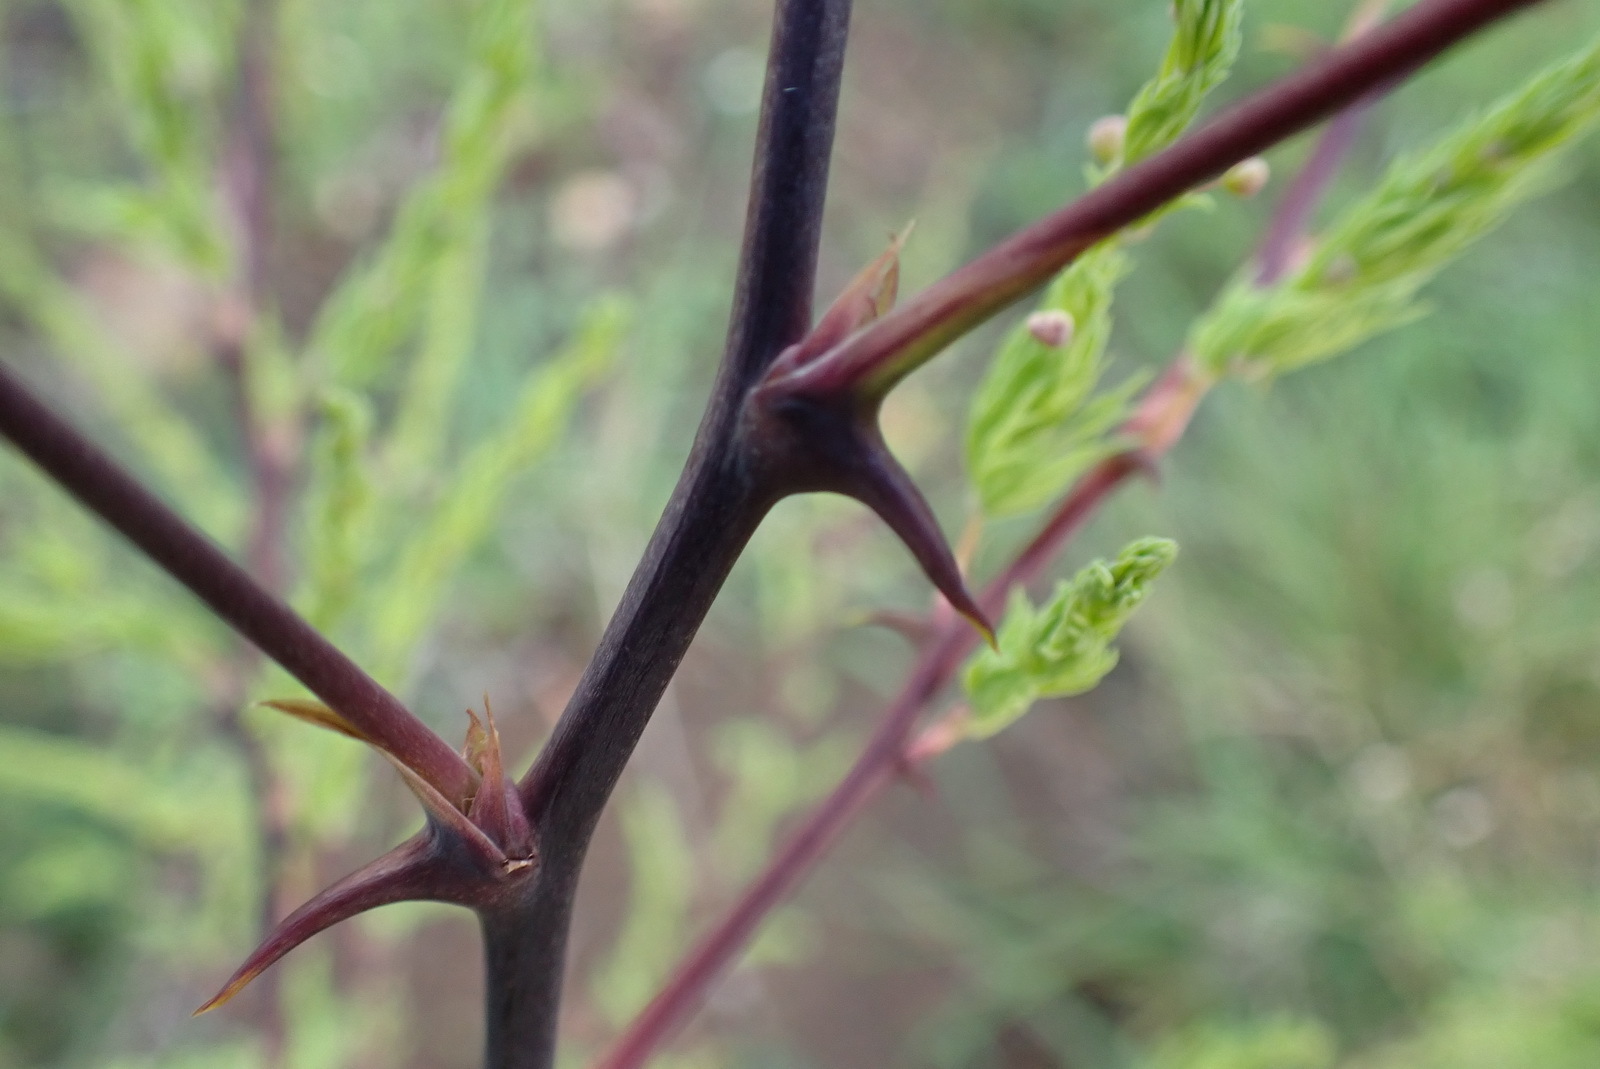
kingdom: Plantae
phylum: Tracheophyta
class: Liliopsida
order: Asparagales
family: Asparagaceae
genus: Asparagus
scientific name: Asparagus rubicundus
